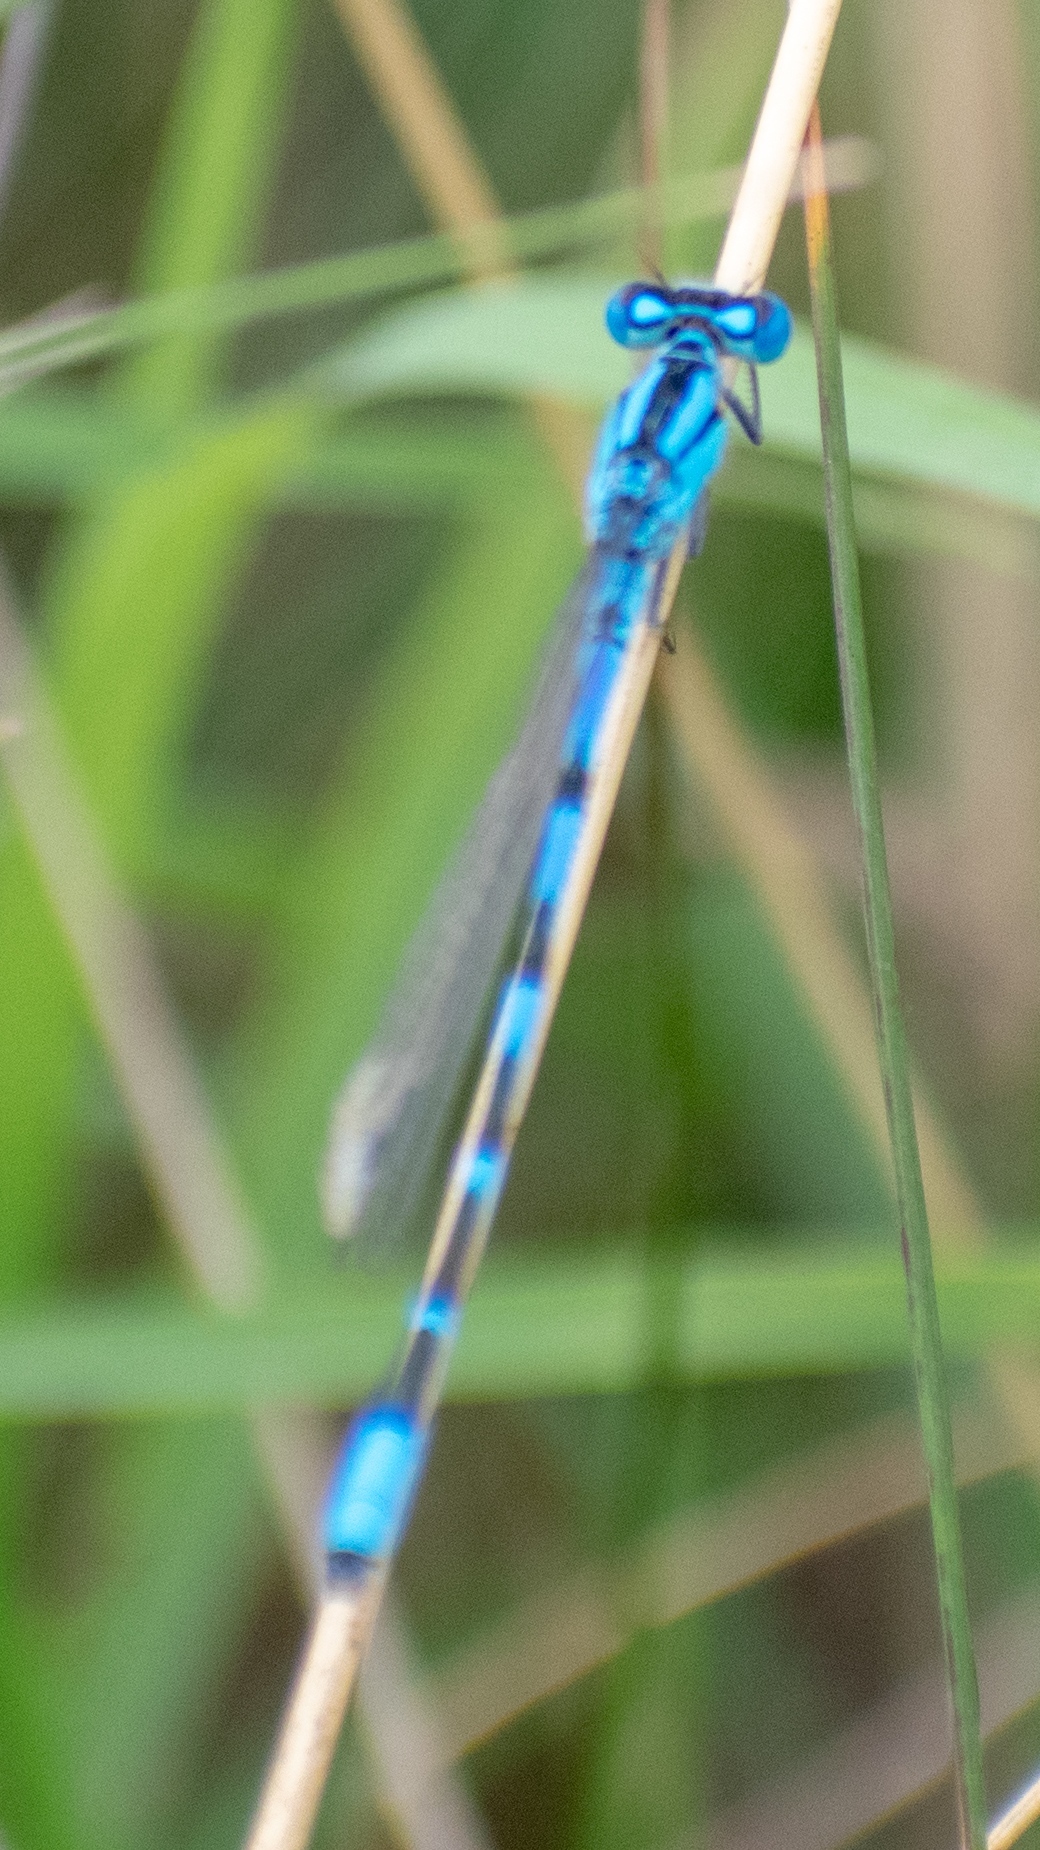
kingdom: Animalia
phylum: Arthropoda
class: Insecta
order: Odonata
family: Coenagrionidae
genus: Enallagma
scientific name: Enallagma cyathigerum
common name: Common blue damselfly
